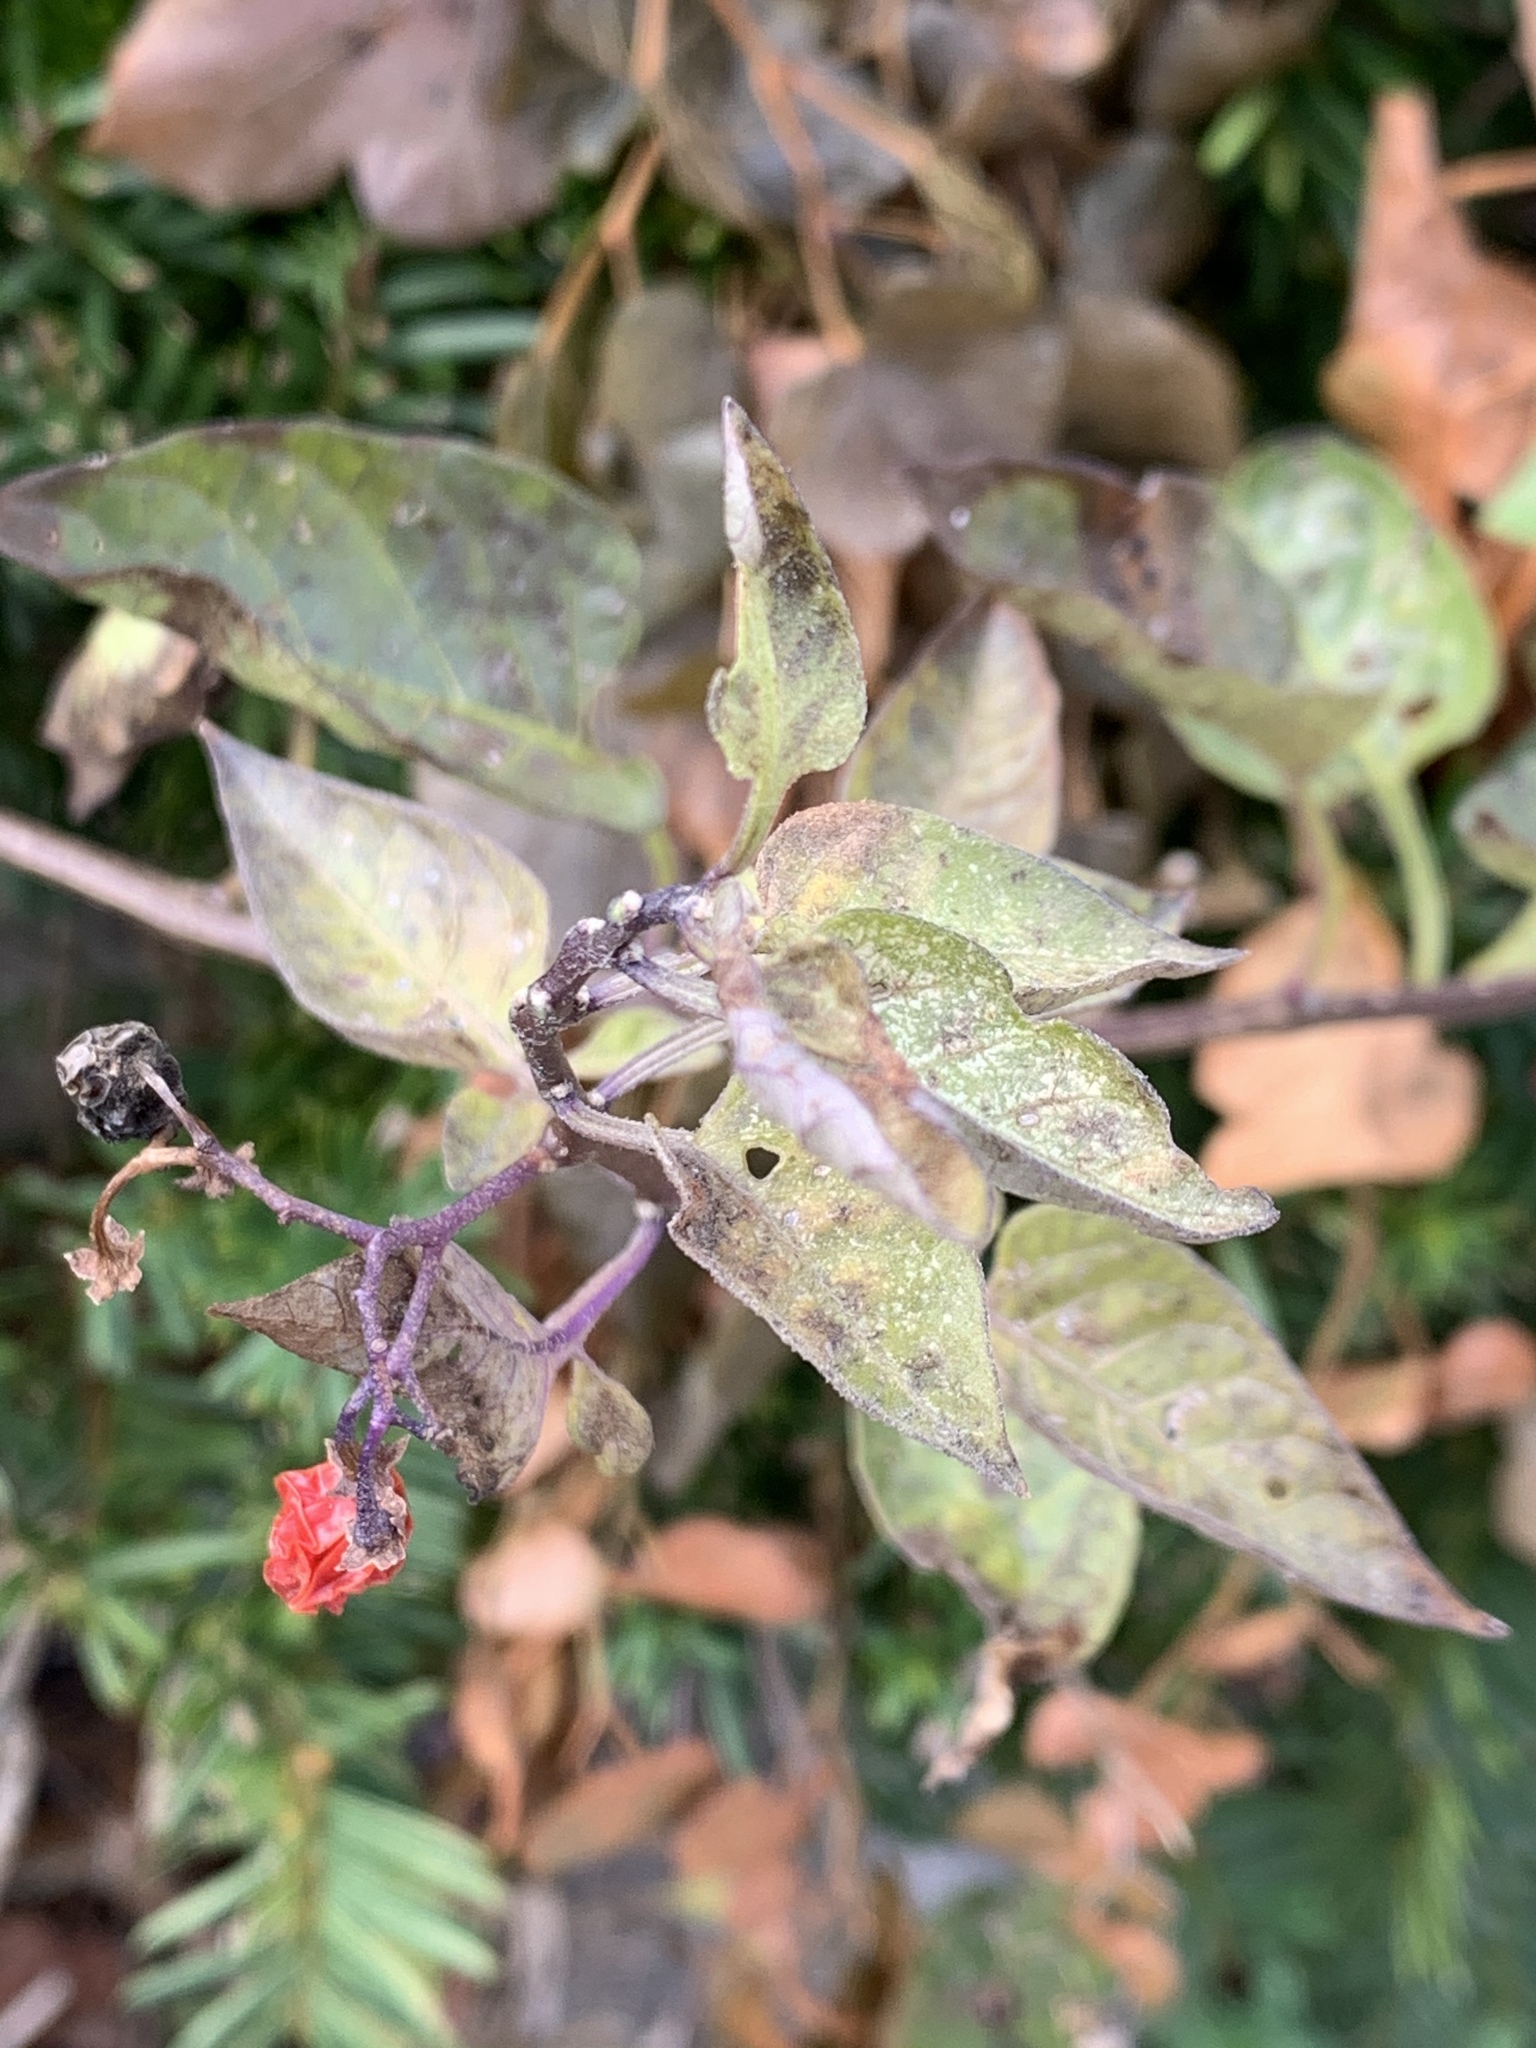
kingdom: Plantae
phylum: Tracheophyta
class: Magnoliopsida
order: Solanales
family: Solanaceae
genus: Solanum
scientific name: Solanum dulcamara
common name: Climbing nightshade
